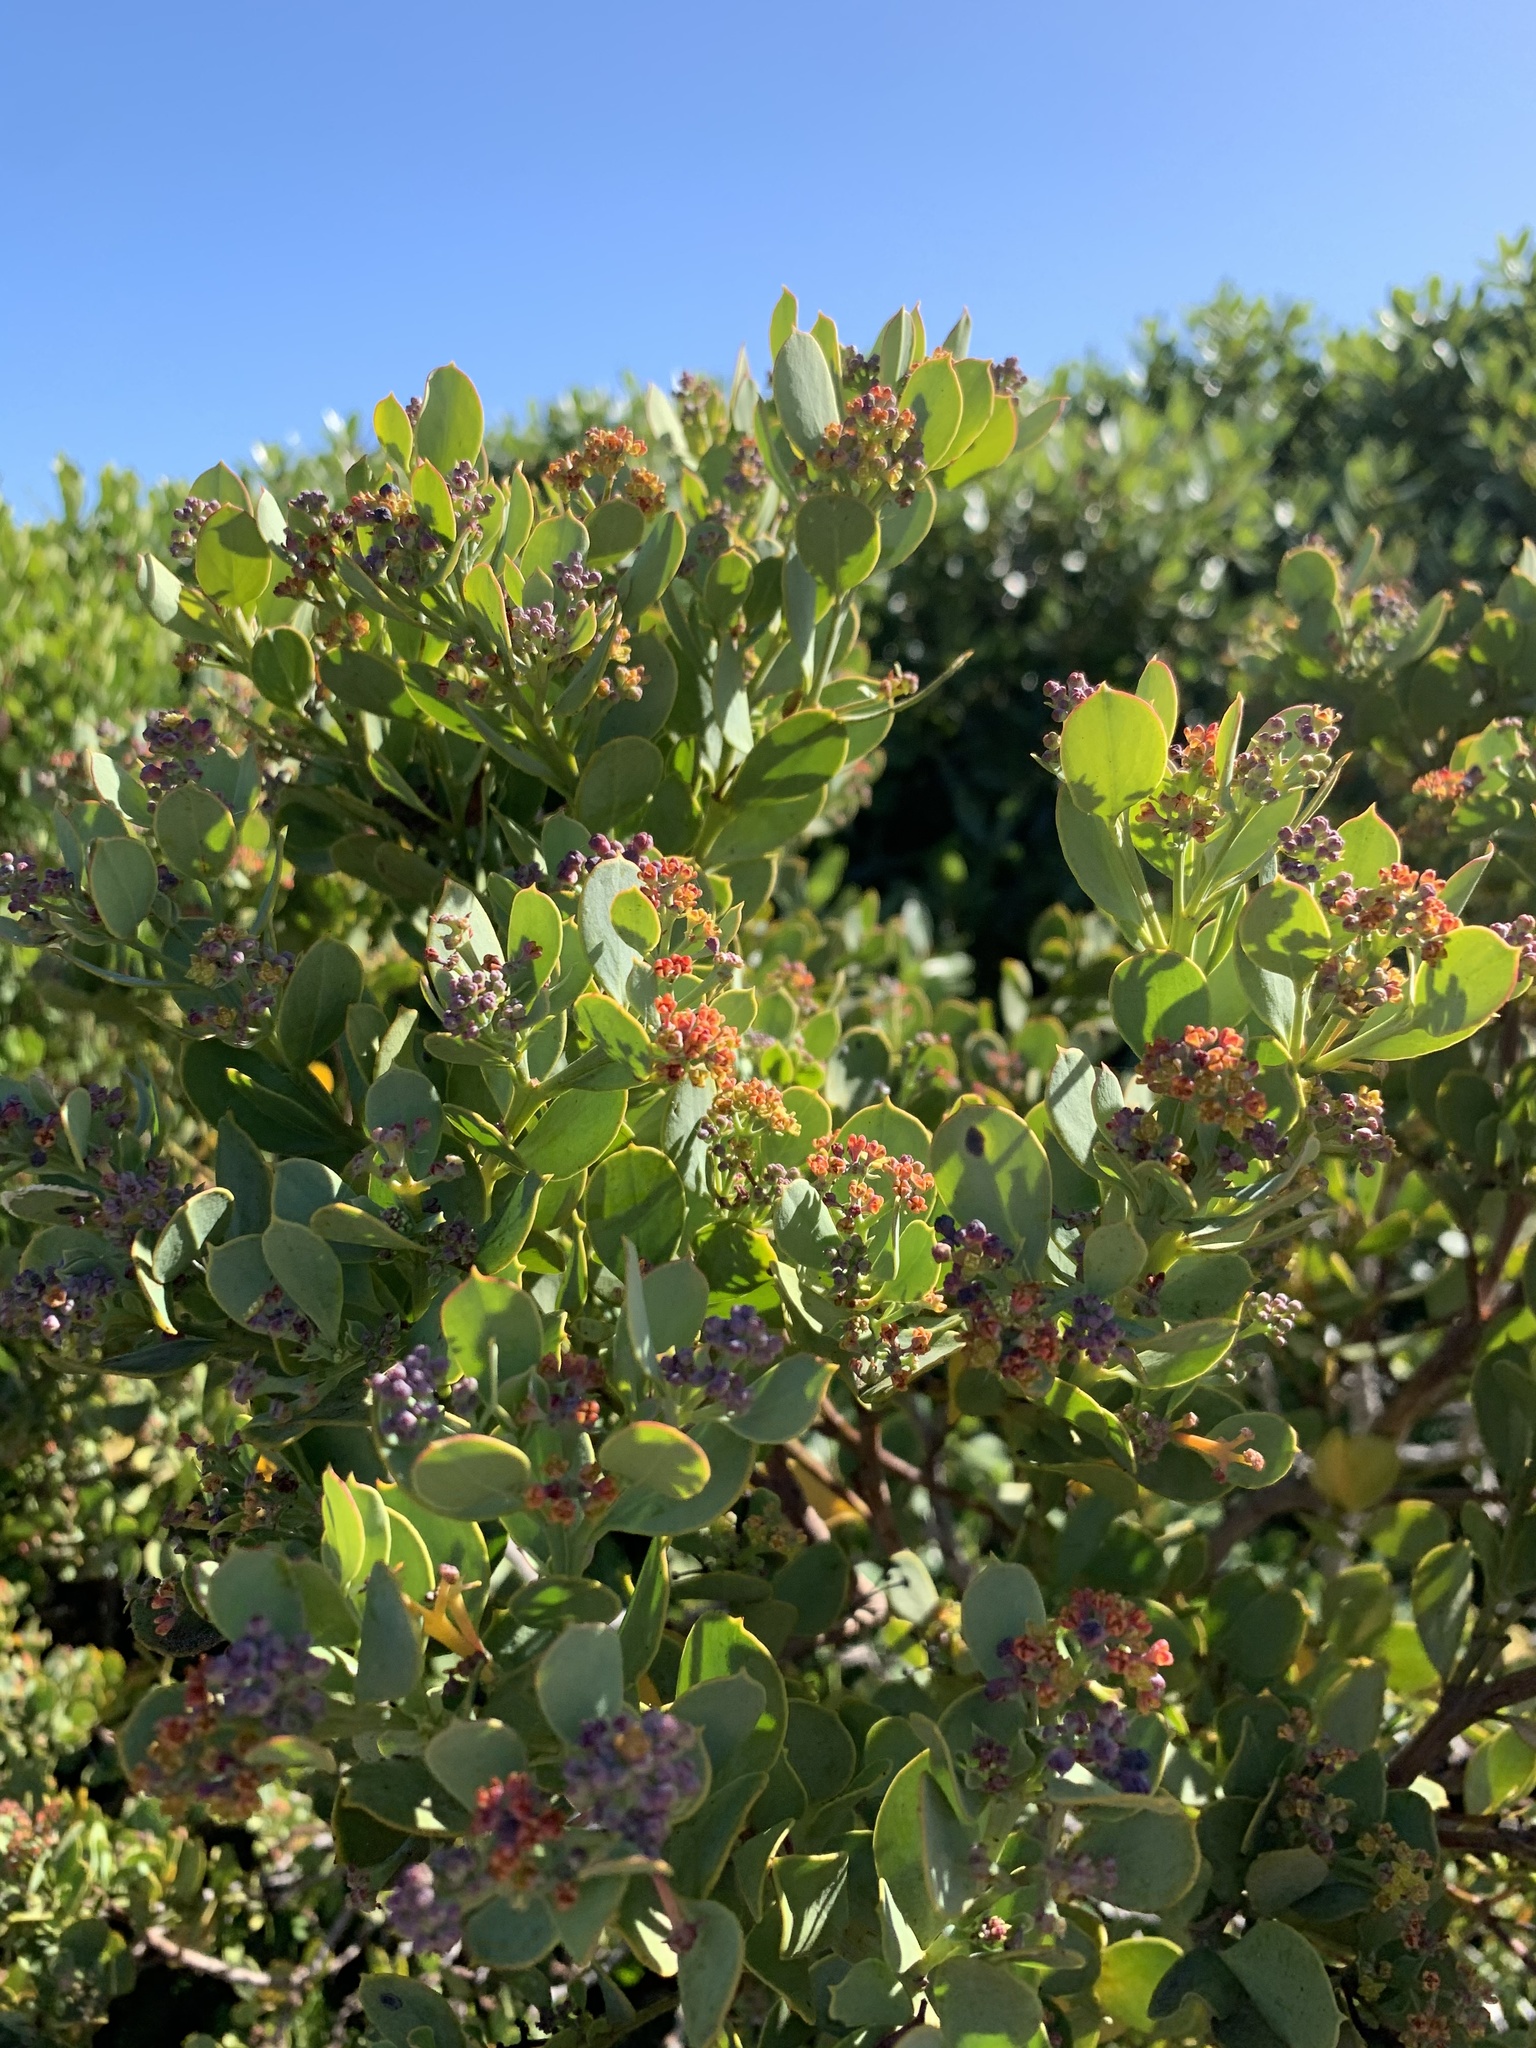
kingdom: Plantae
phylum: Tracheophyta
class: Magnoliopsida
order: Santalales
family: Santalaceae
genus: Osyris
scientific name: Osyris compressa
